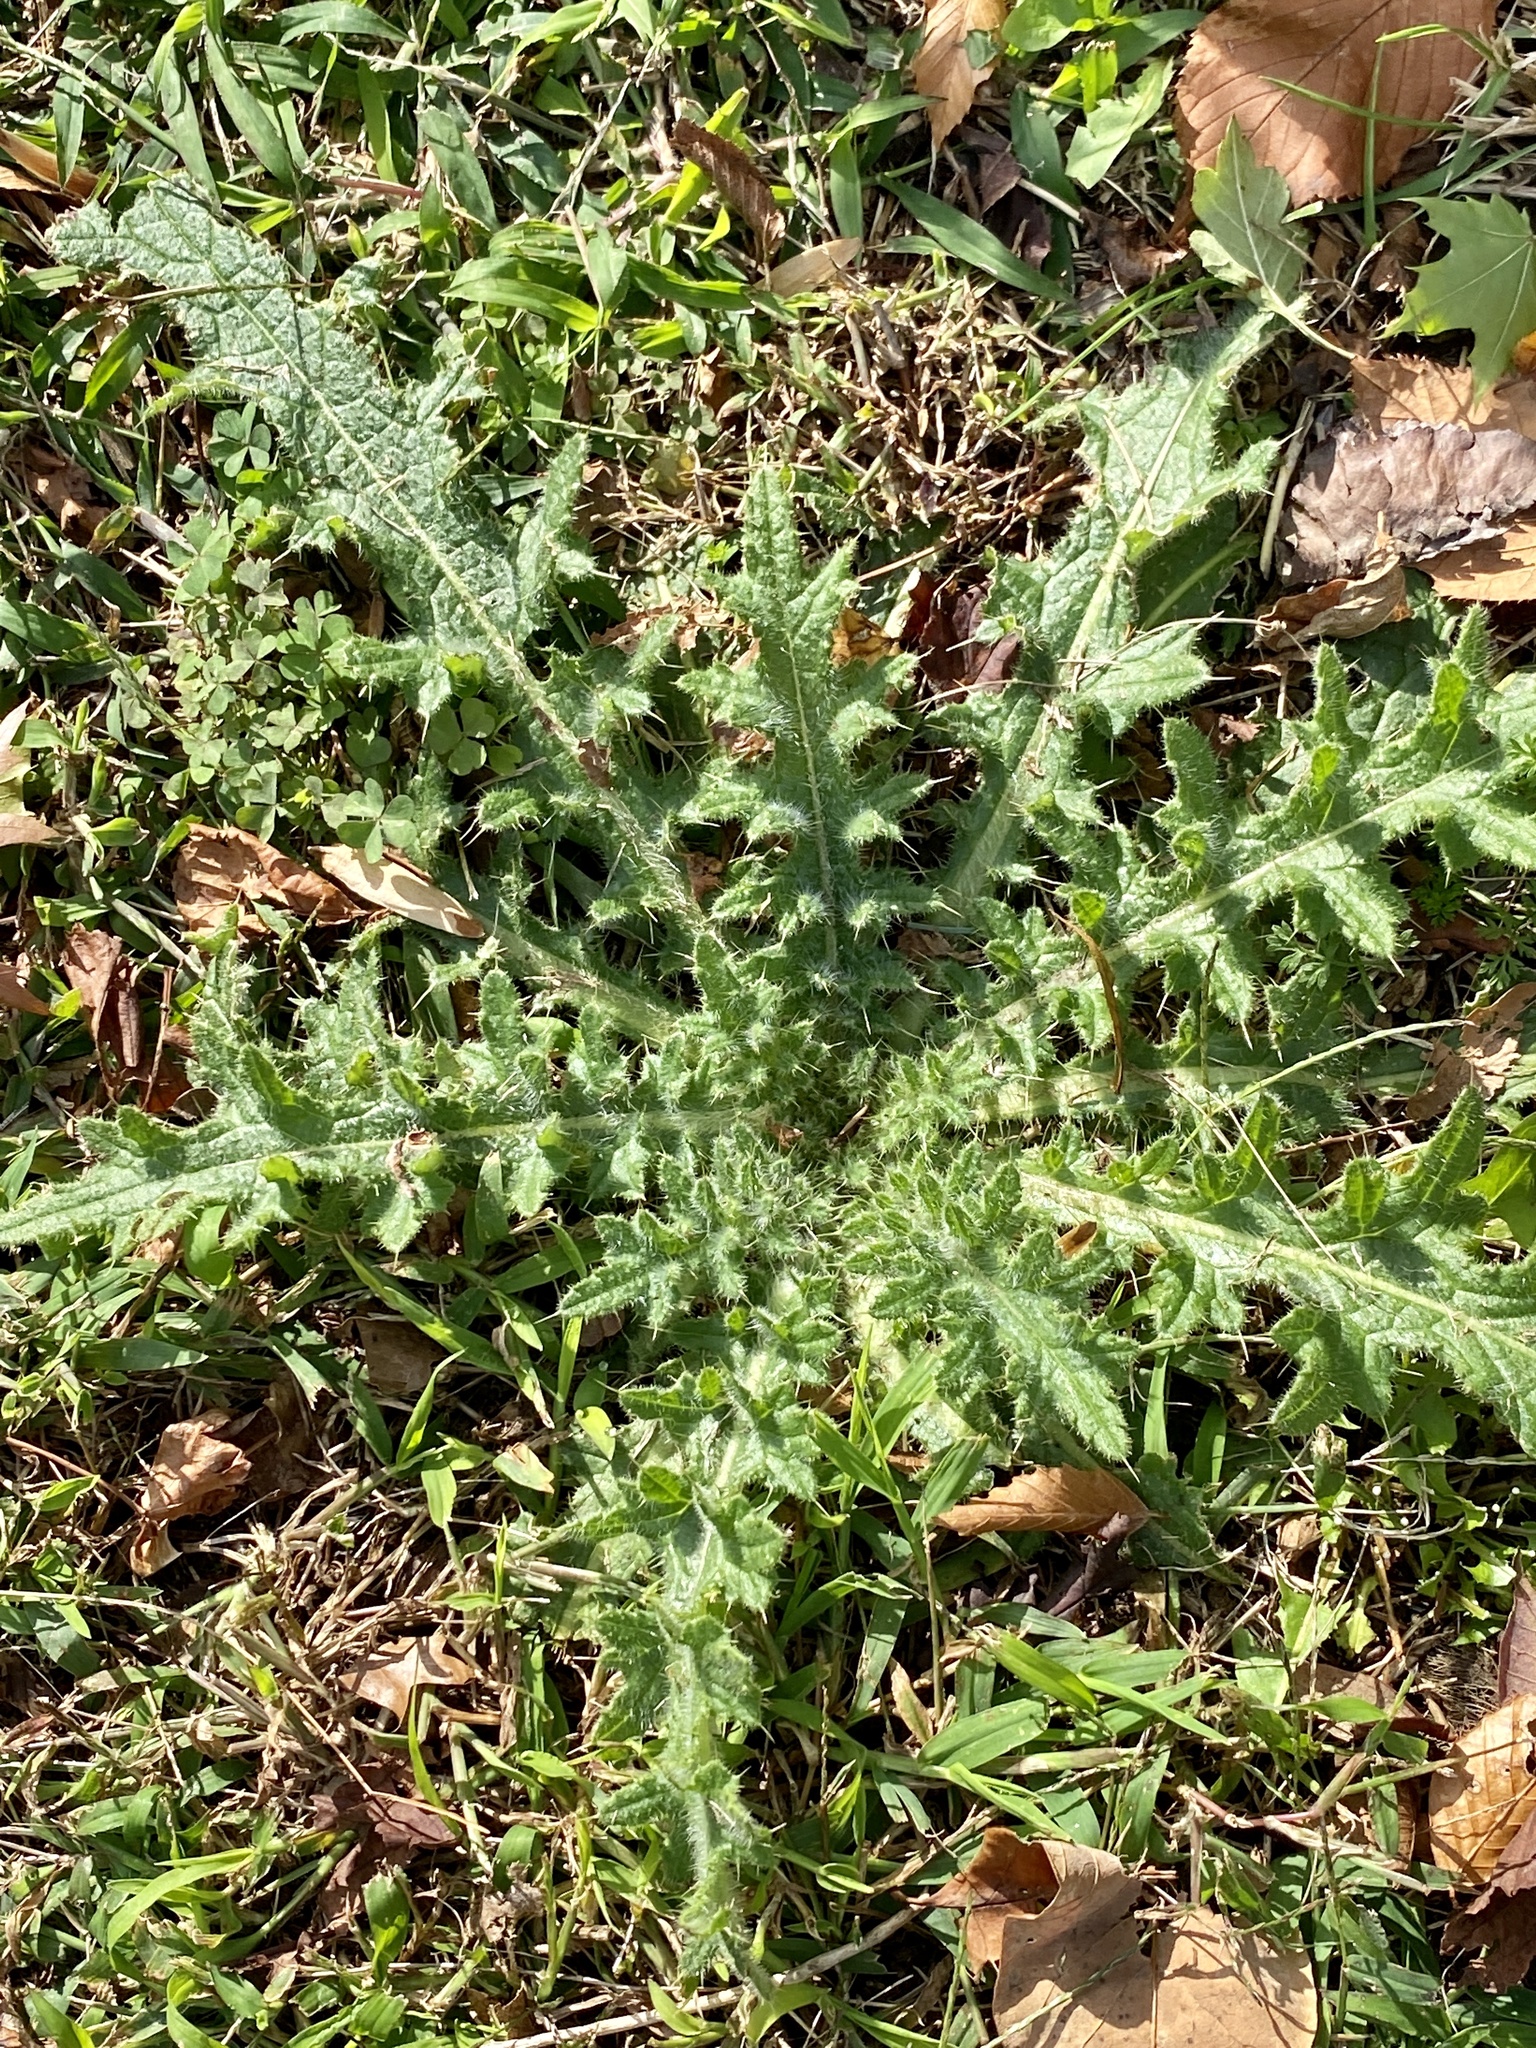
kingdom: Plantae
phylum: Tracheophyta
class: Magnoliopsida
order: Asterales
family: Asteraceae
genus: Cirsium
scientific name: Cirsium vulgare
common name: Bull thistle
